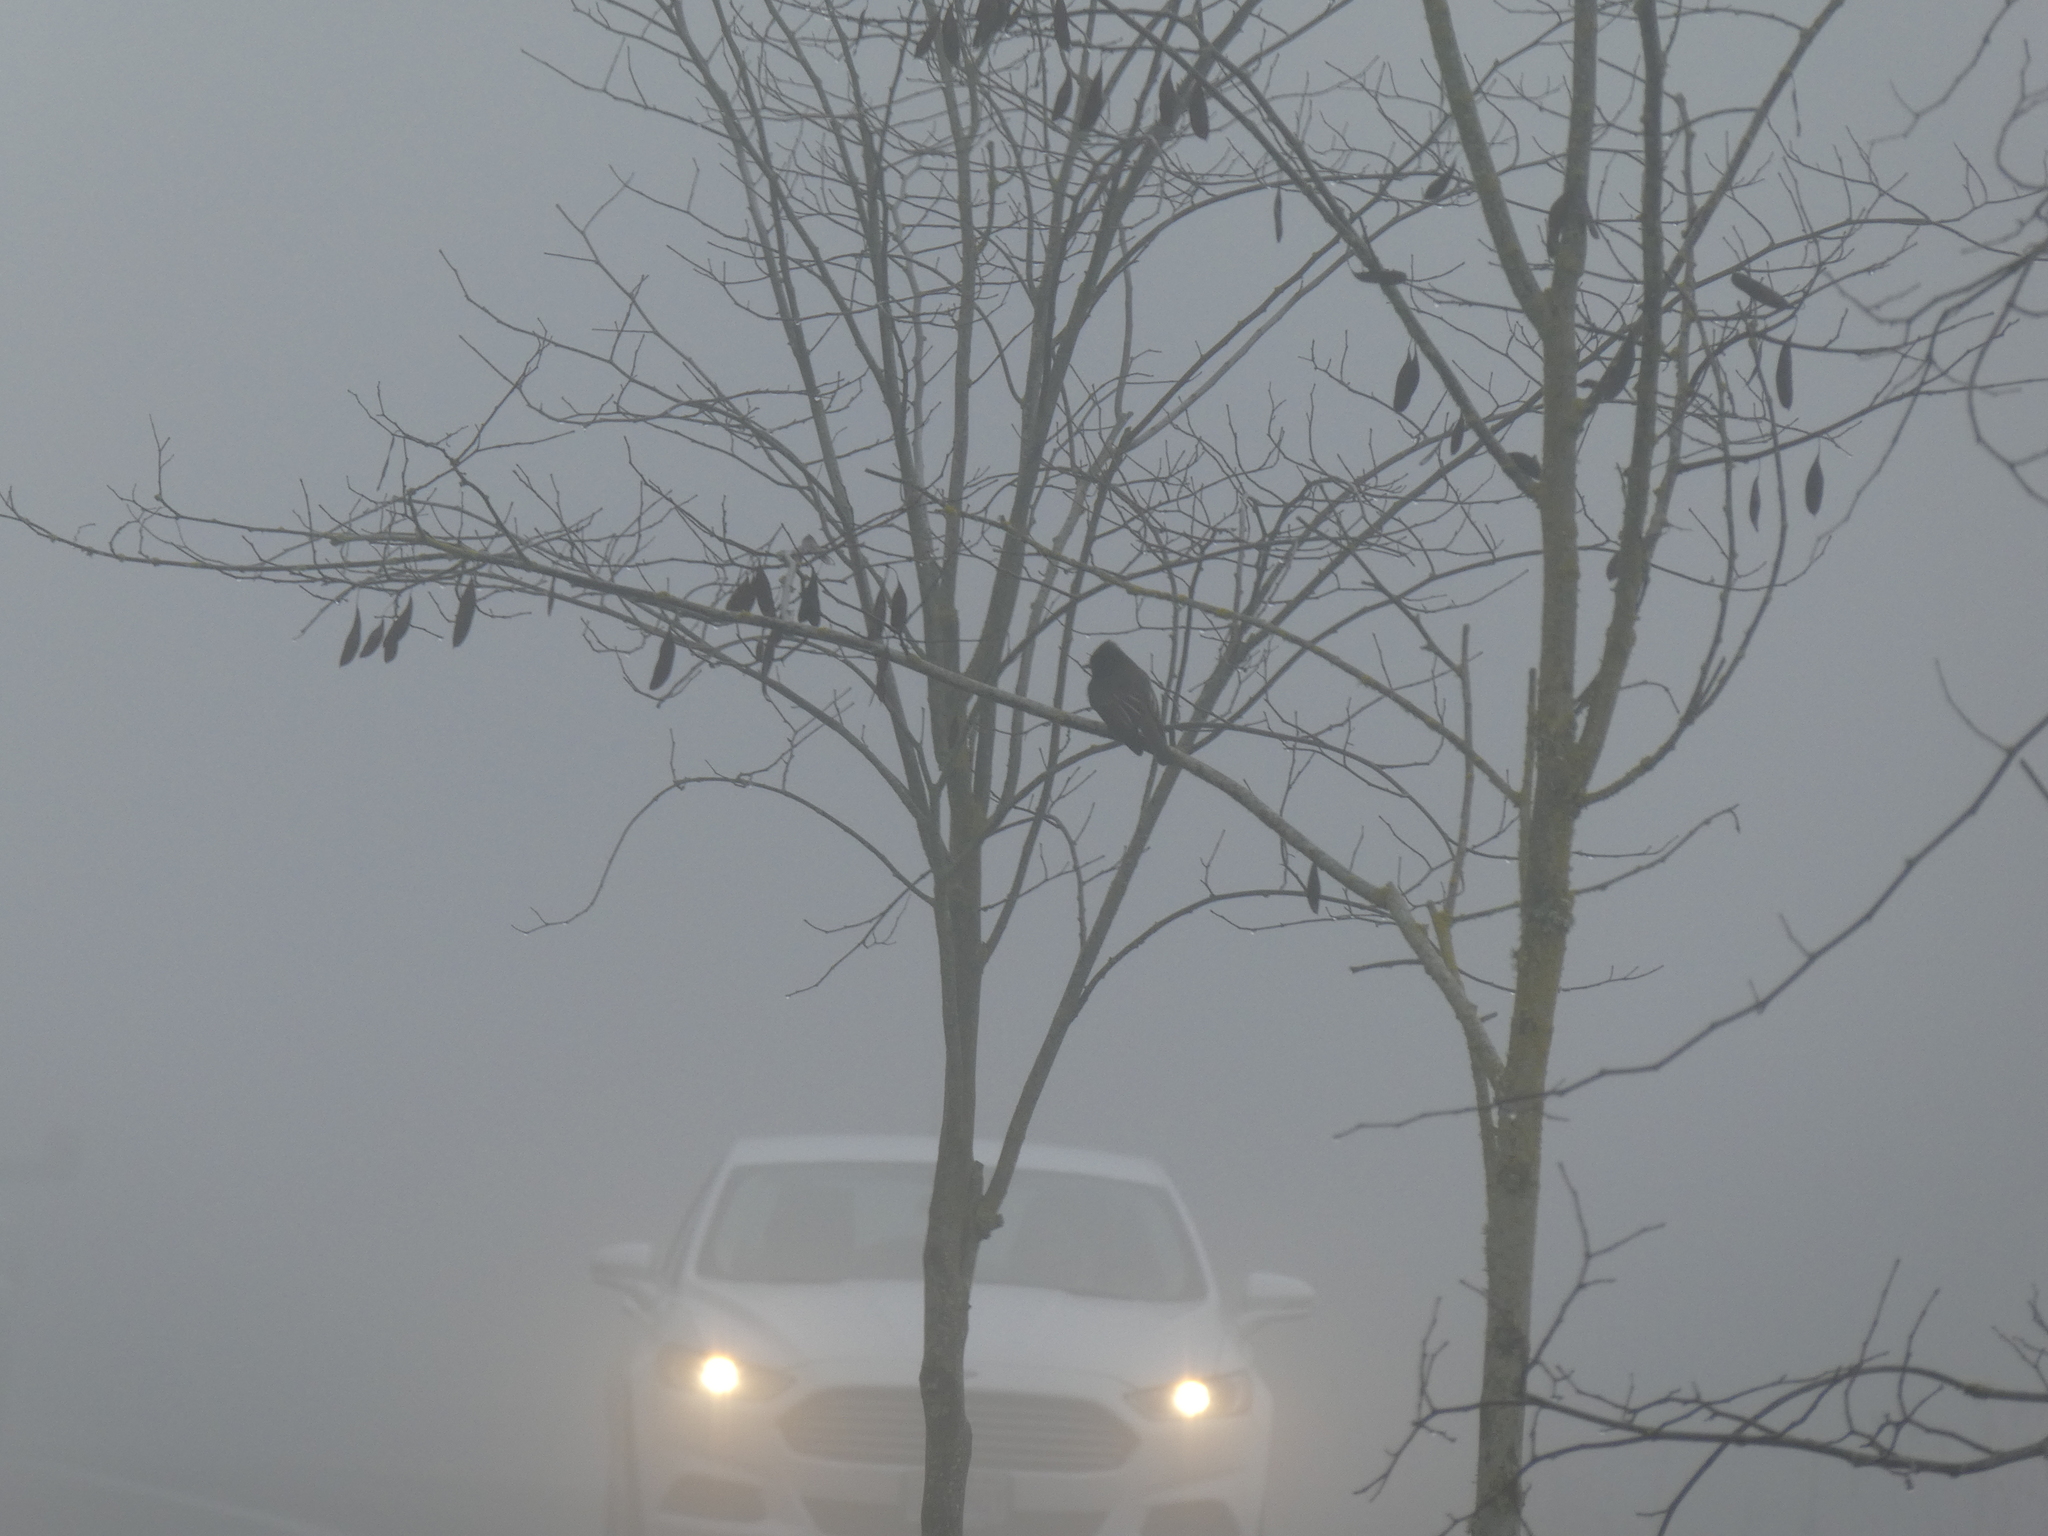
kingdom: Animalia
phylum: Chordata
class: Aves
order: Passeriformes
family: Tyrannidae
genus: Sayornis
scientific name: Sayornis nigricans
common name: Black phoebe
